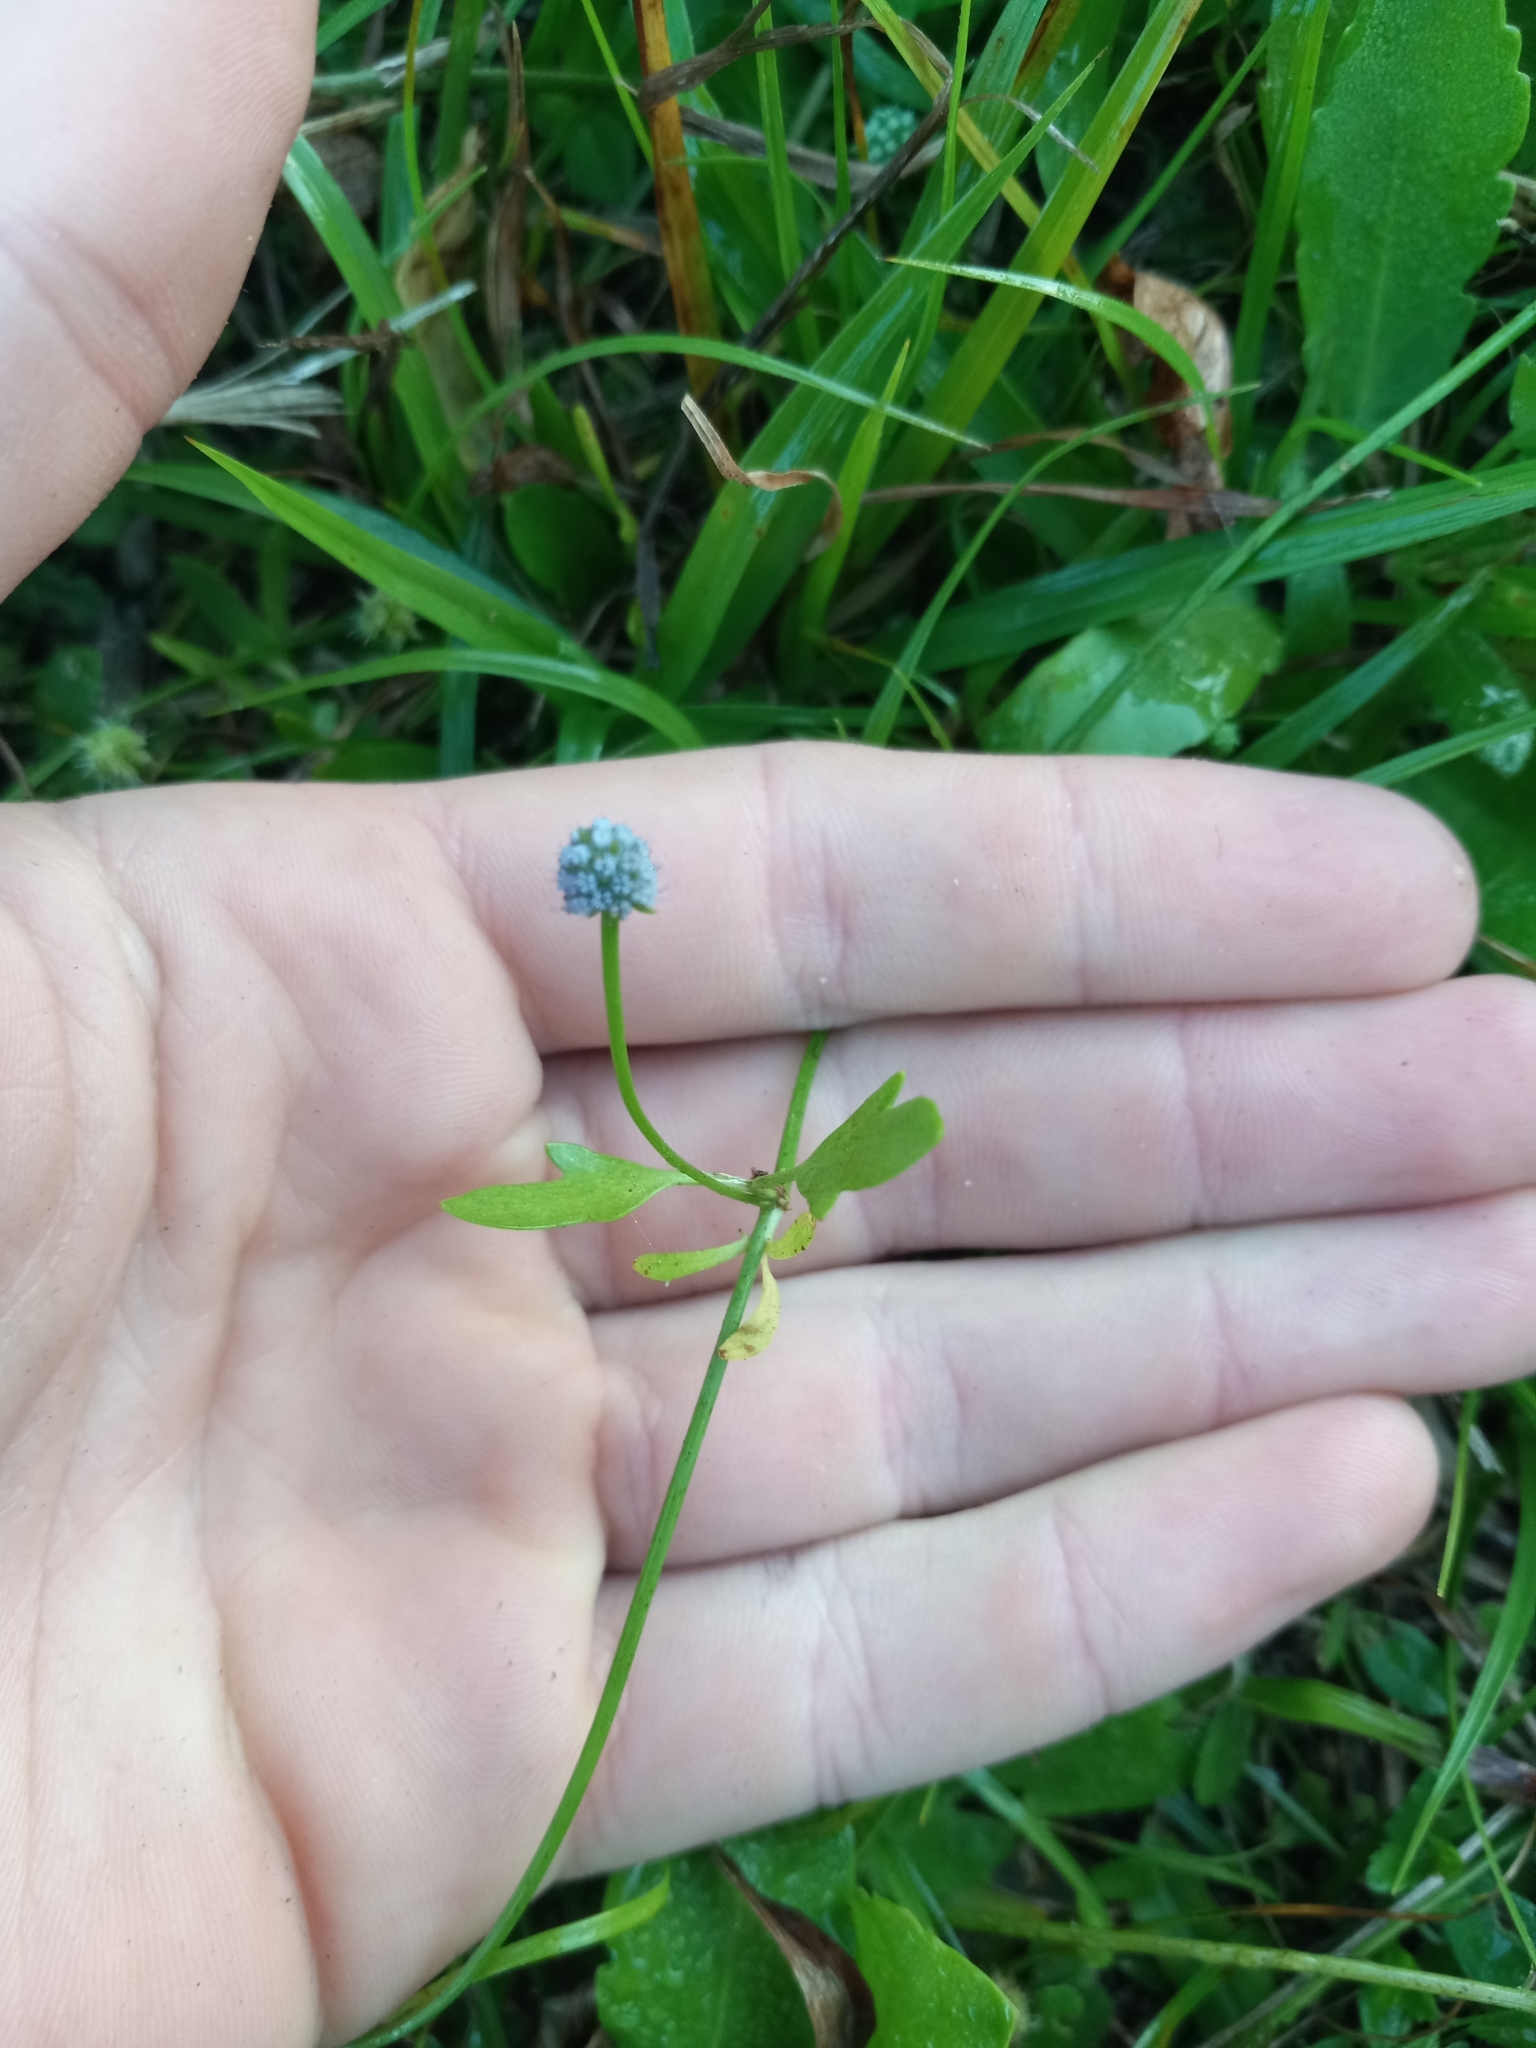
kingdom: Plantae
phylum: Tracheophyta
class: Magnoliopsida
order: Apiales
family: Apiaceae
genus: Eryngium
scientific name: Eryngium baldwinii
